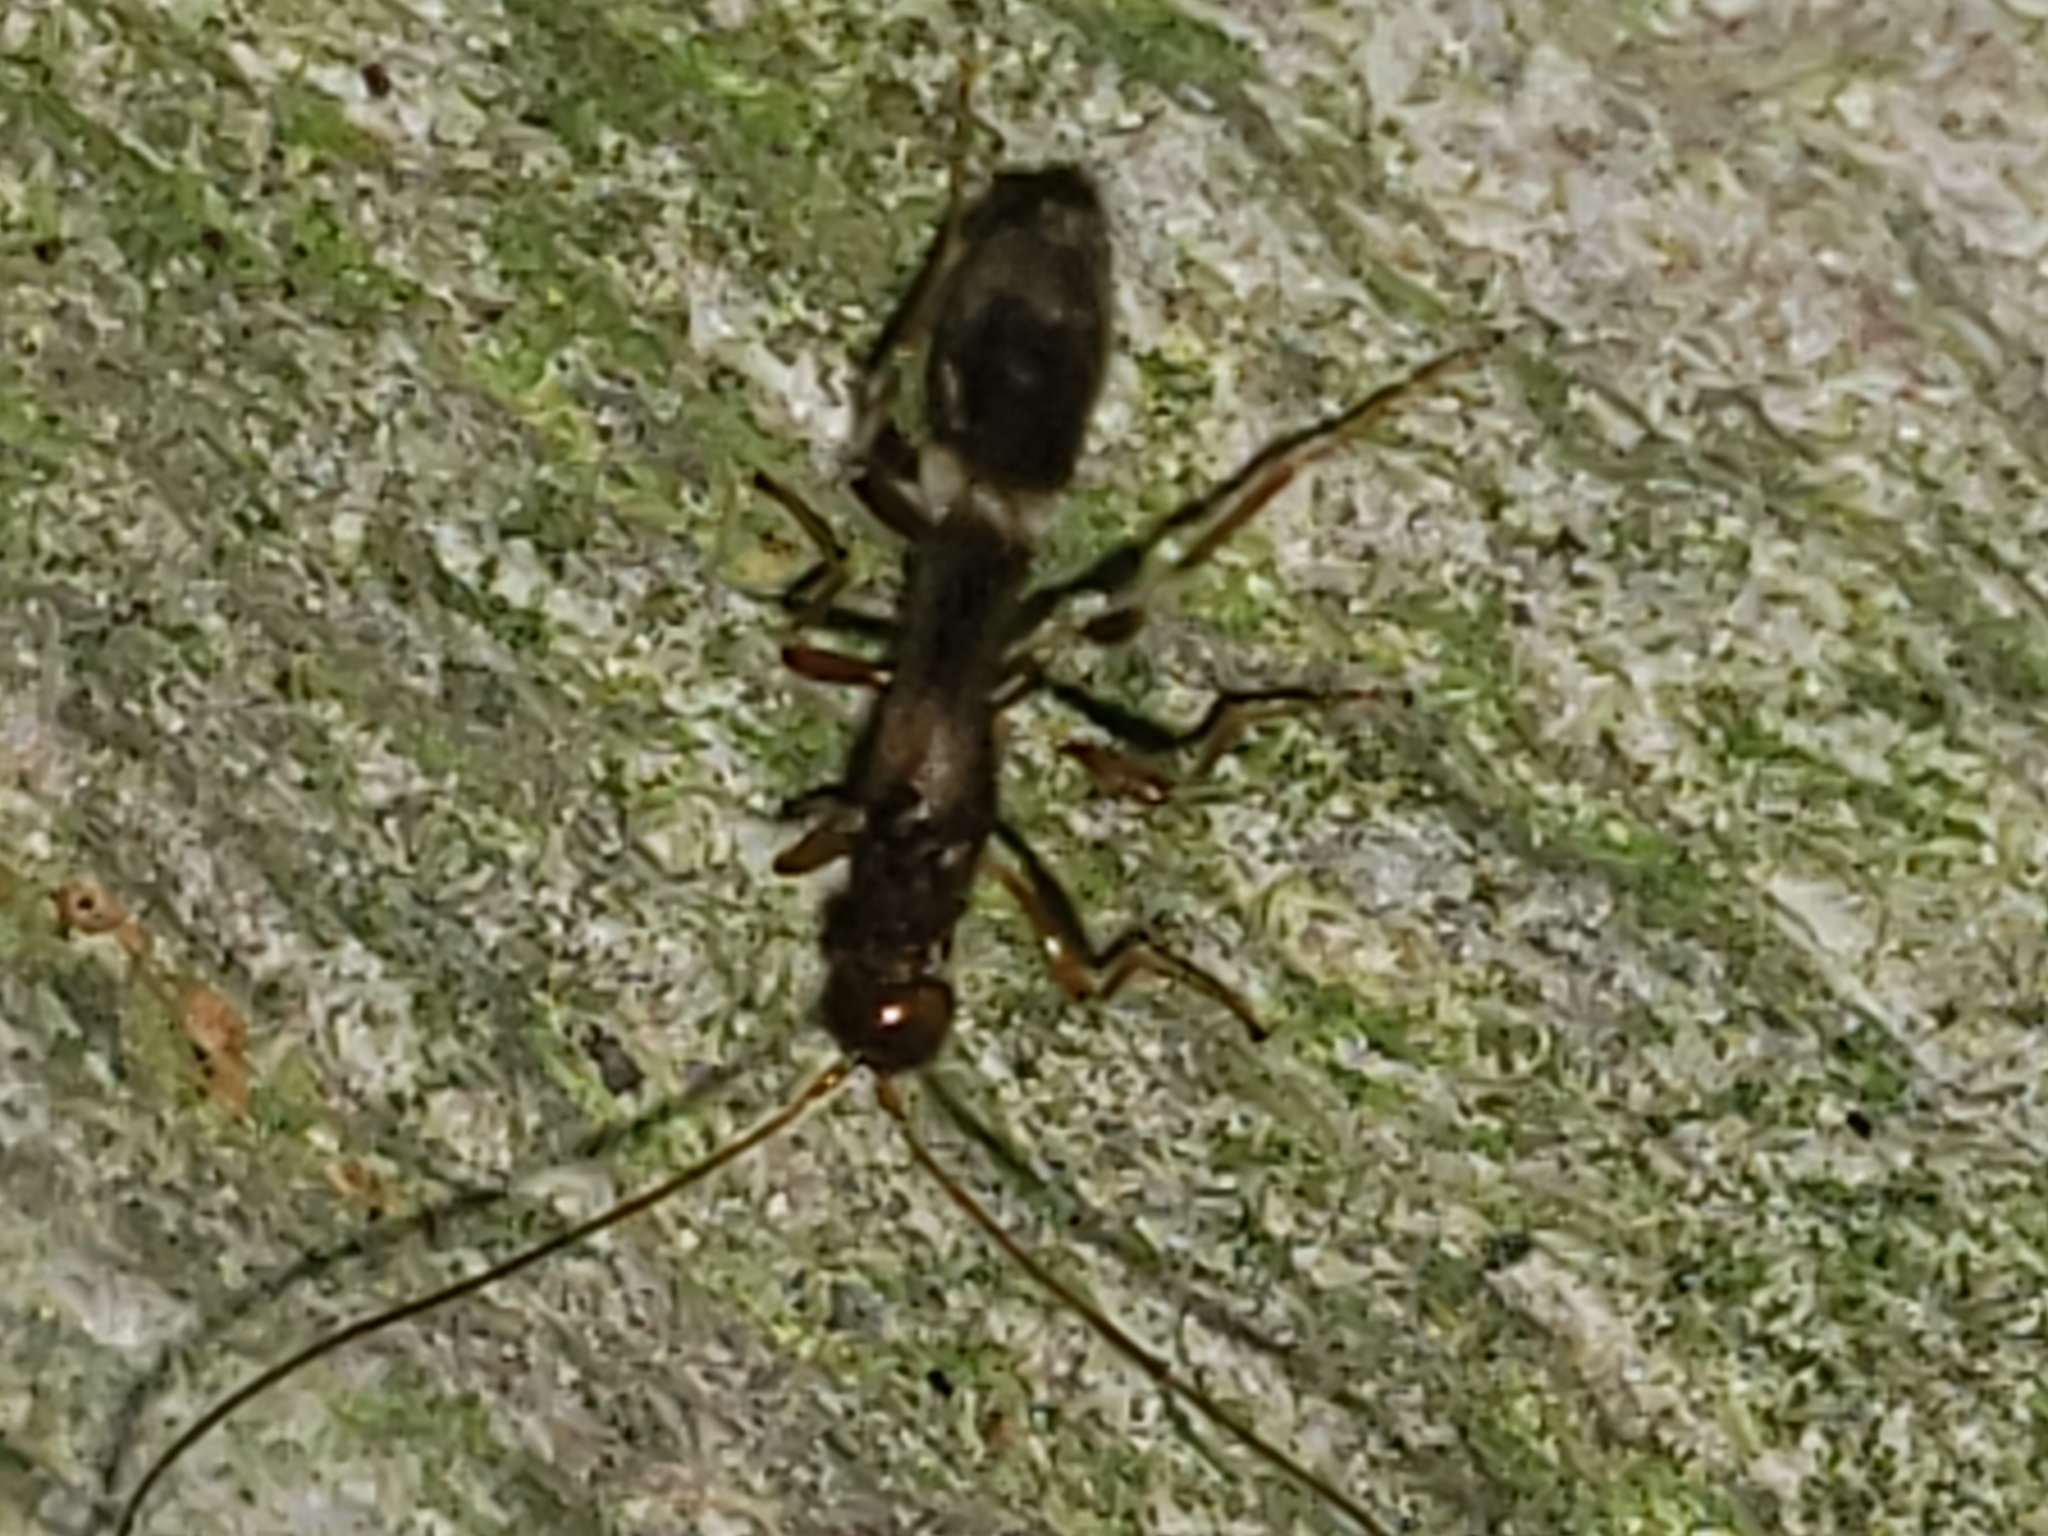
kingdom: Animalia
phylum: Arthropoda
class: Insecta
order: Diptera
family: Micropezidae
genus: Rainieria
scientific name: Rainieria antennaepes
